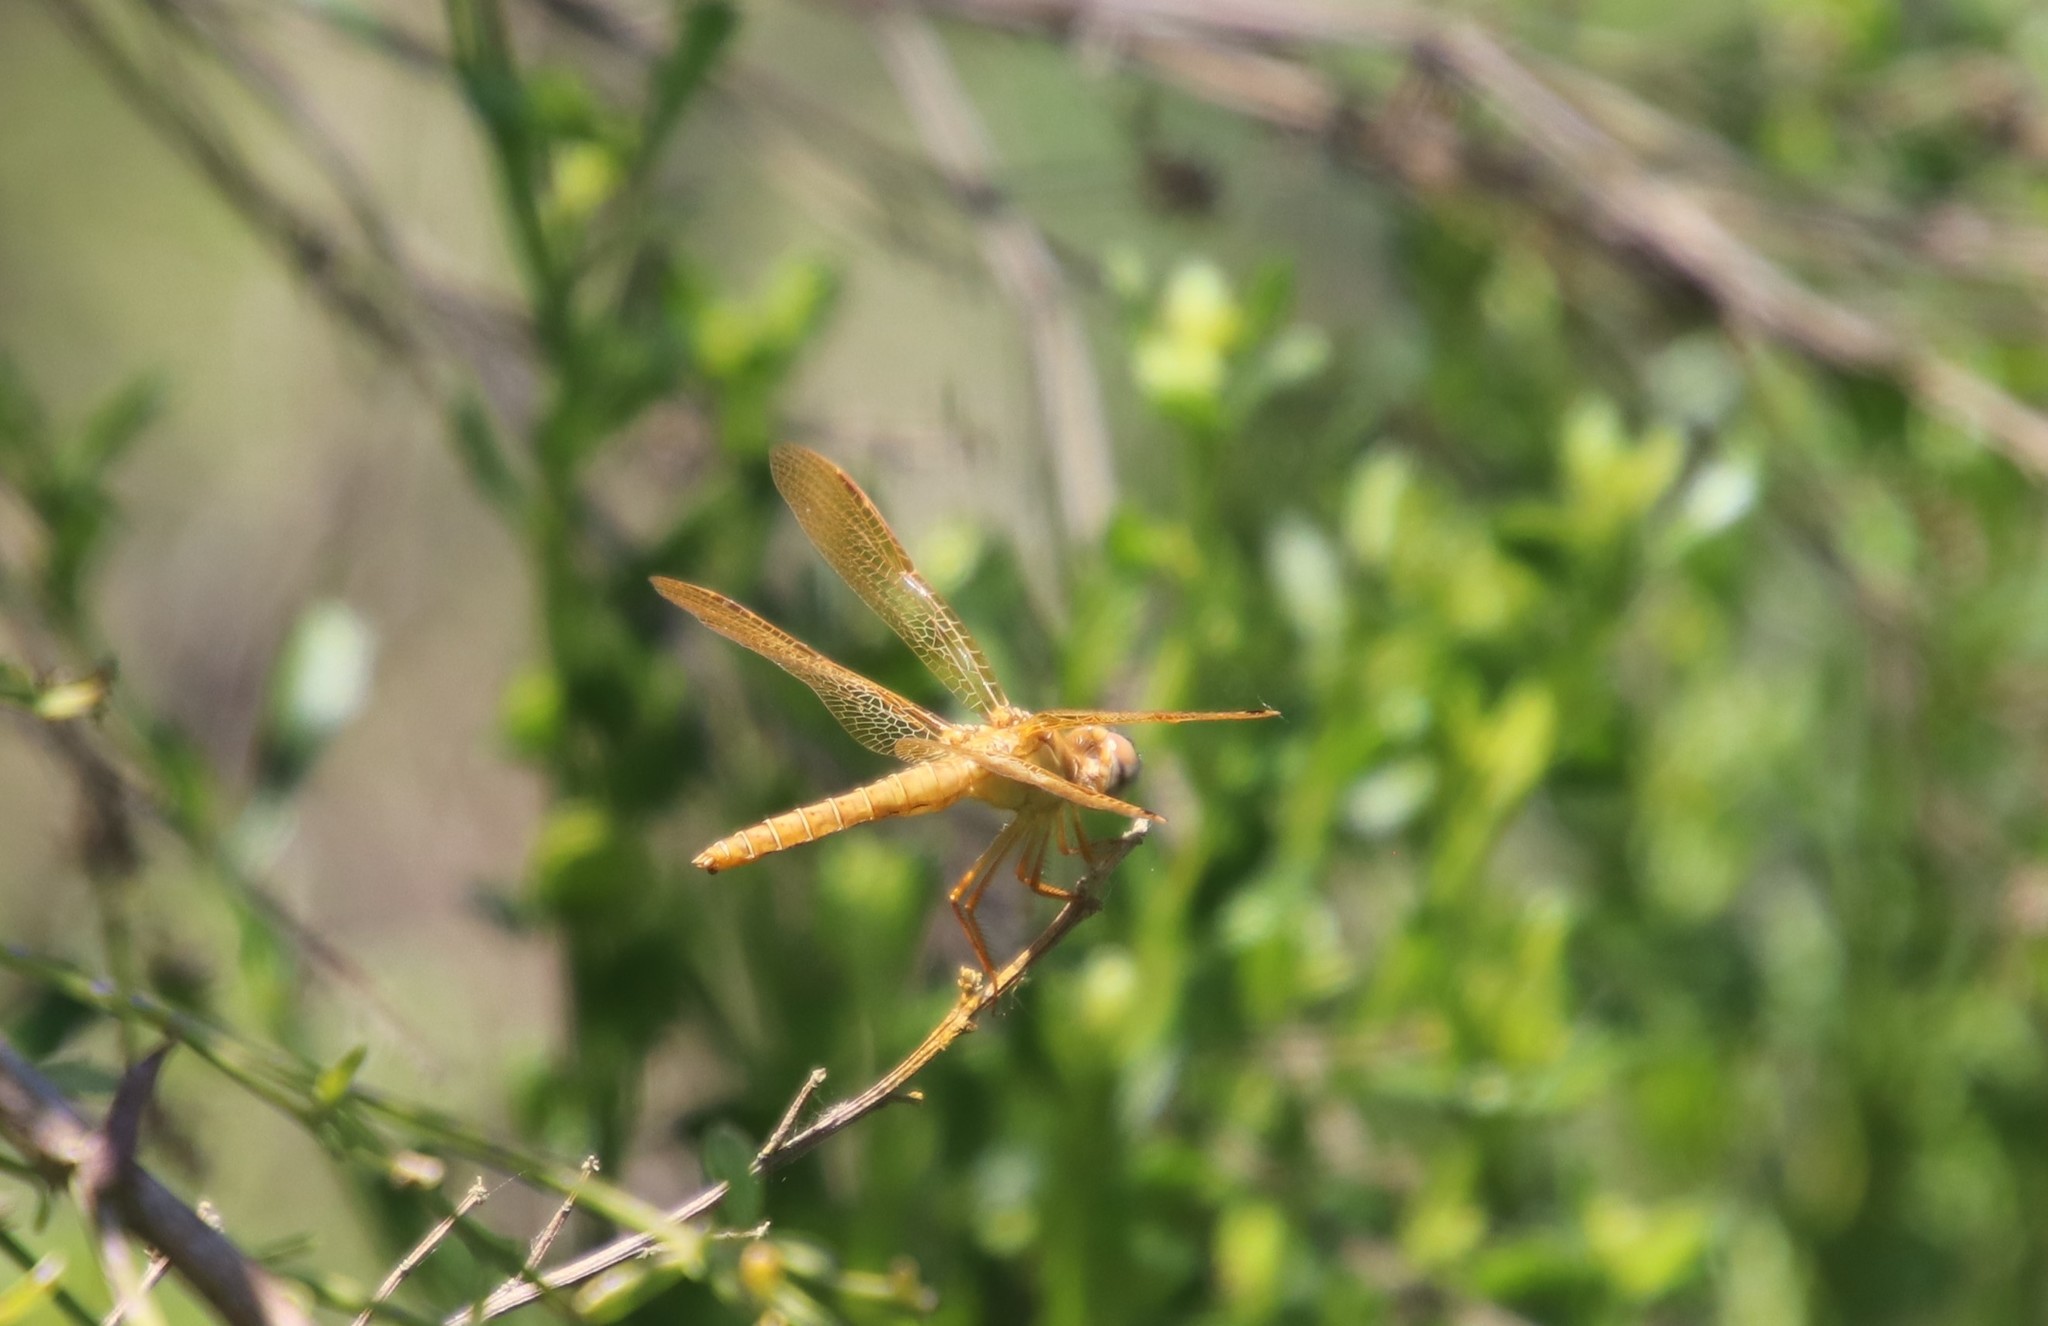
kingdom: Animalia
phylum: Arthropoda
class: Insecta
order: Odonata
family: Libellulidae
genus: Perithemis
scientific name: Perithemis intensa
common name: Mexican amberwing
